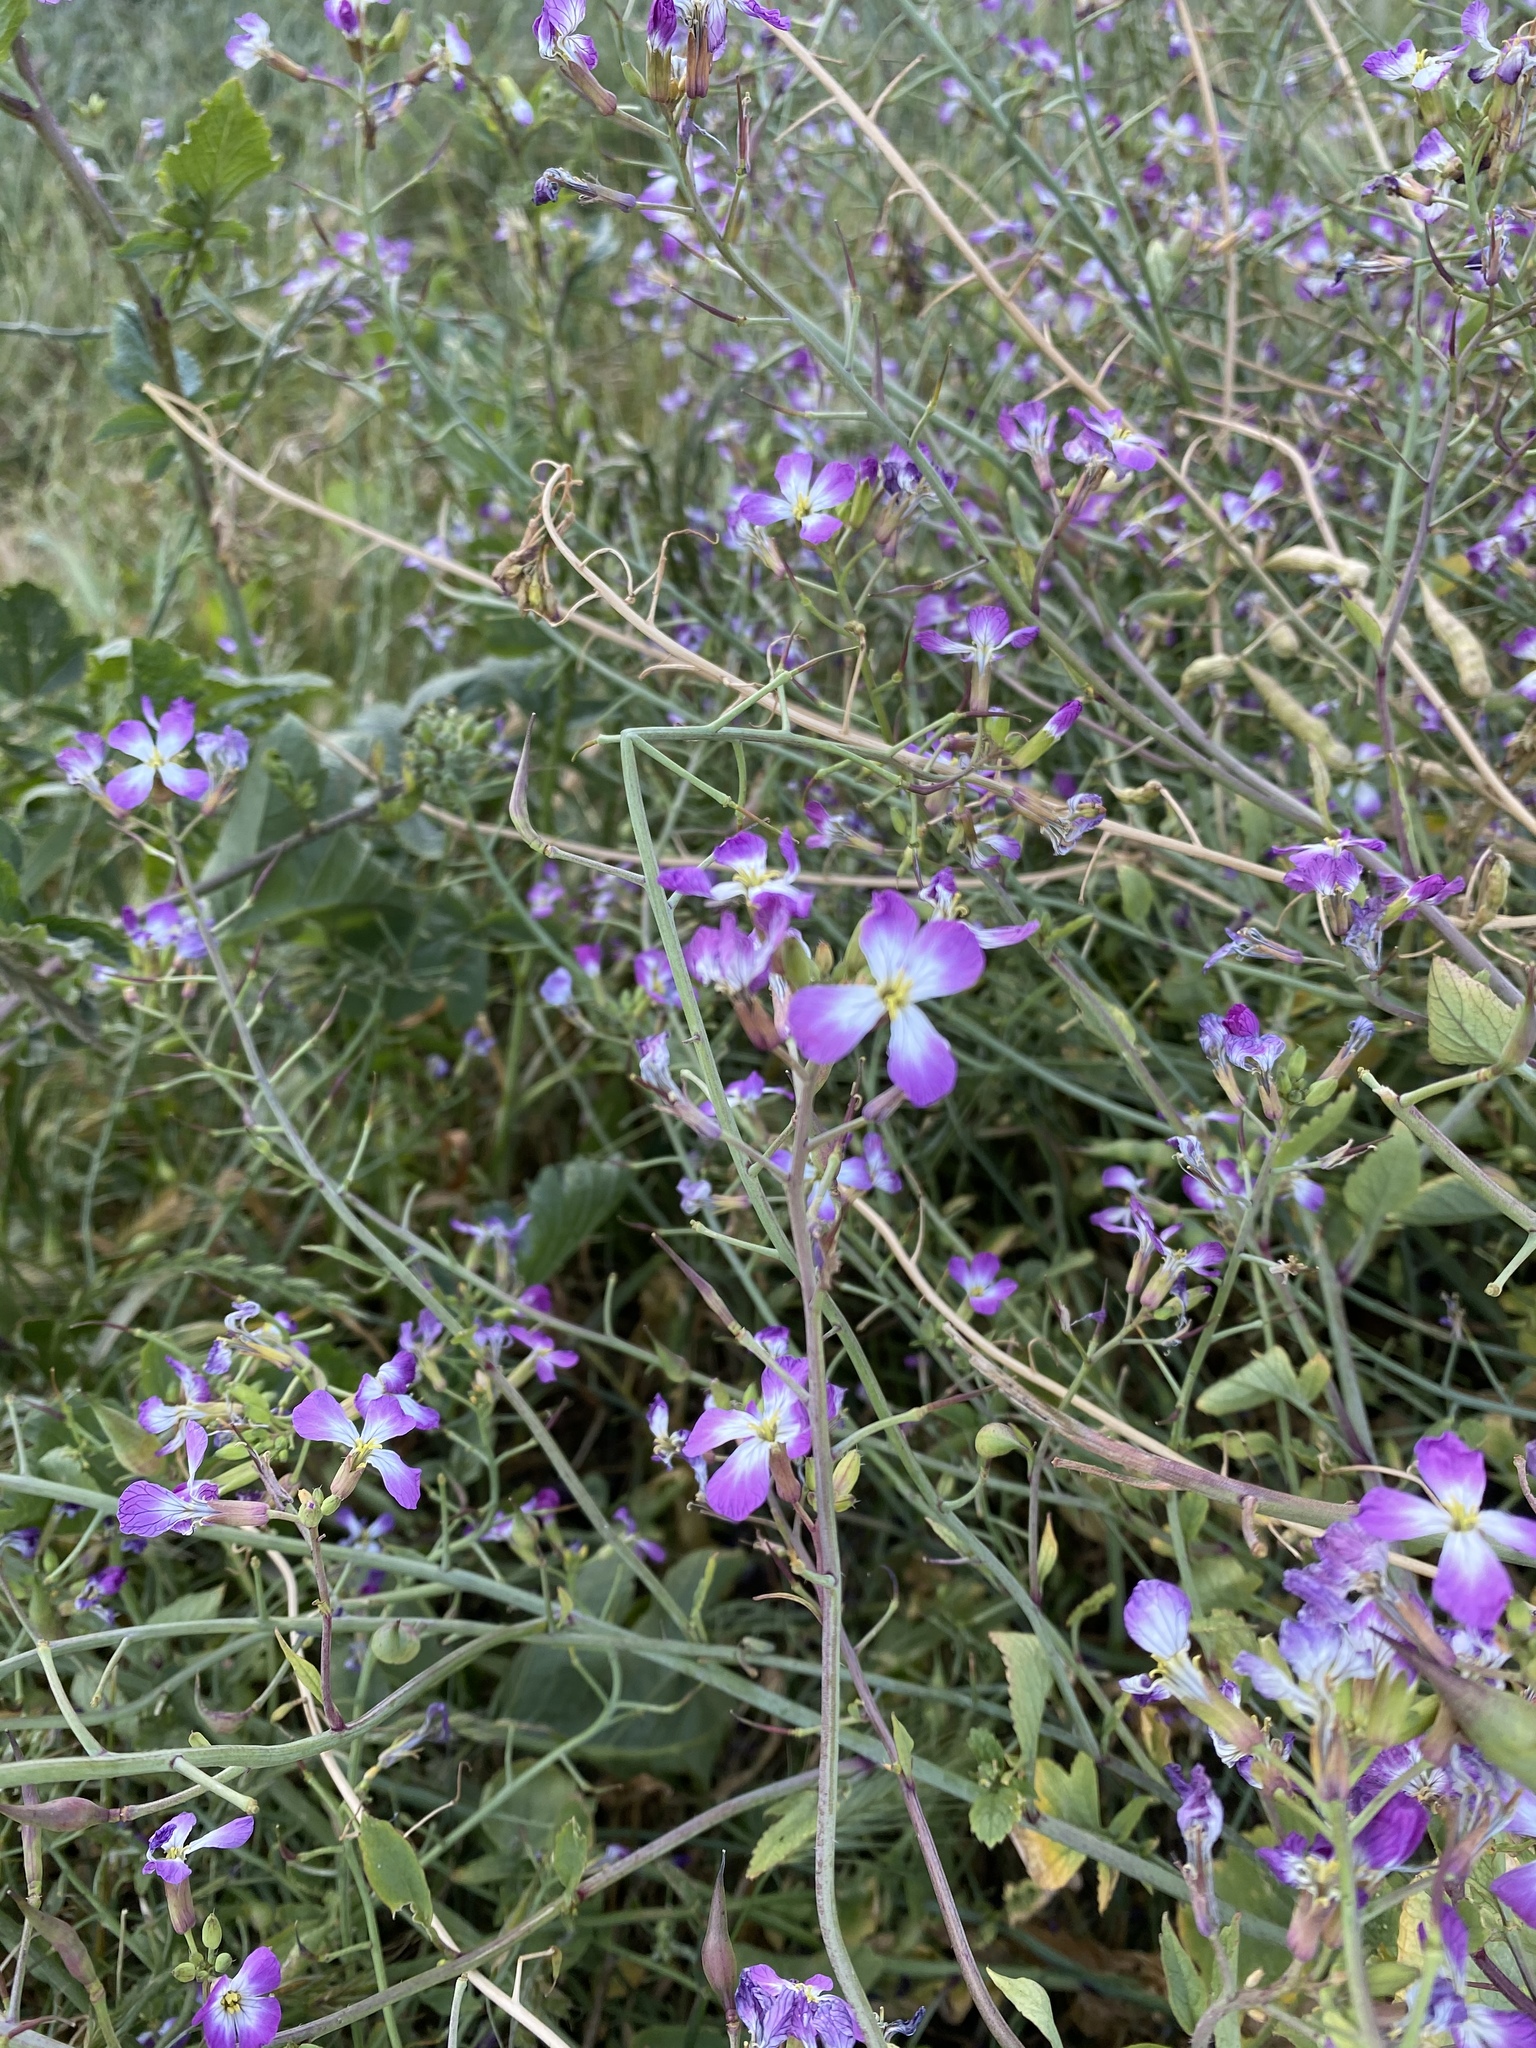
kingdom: Plantae
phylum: Tracheophyta
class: Magnoliopsida
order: Brassicales
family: Brassicaceae
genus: Raphanus
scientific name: Raphanus sativus
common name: Cultivated radish
